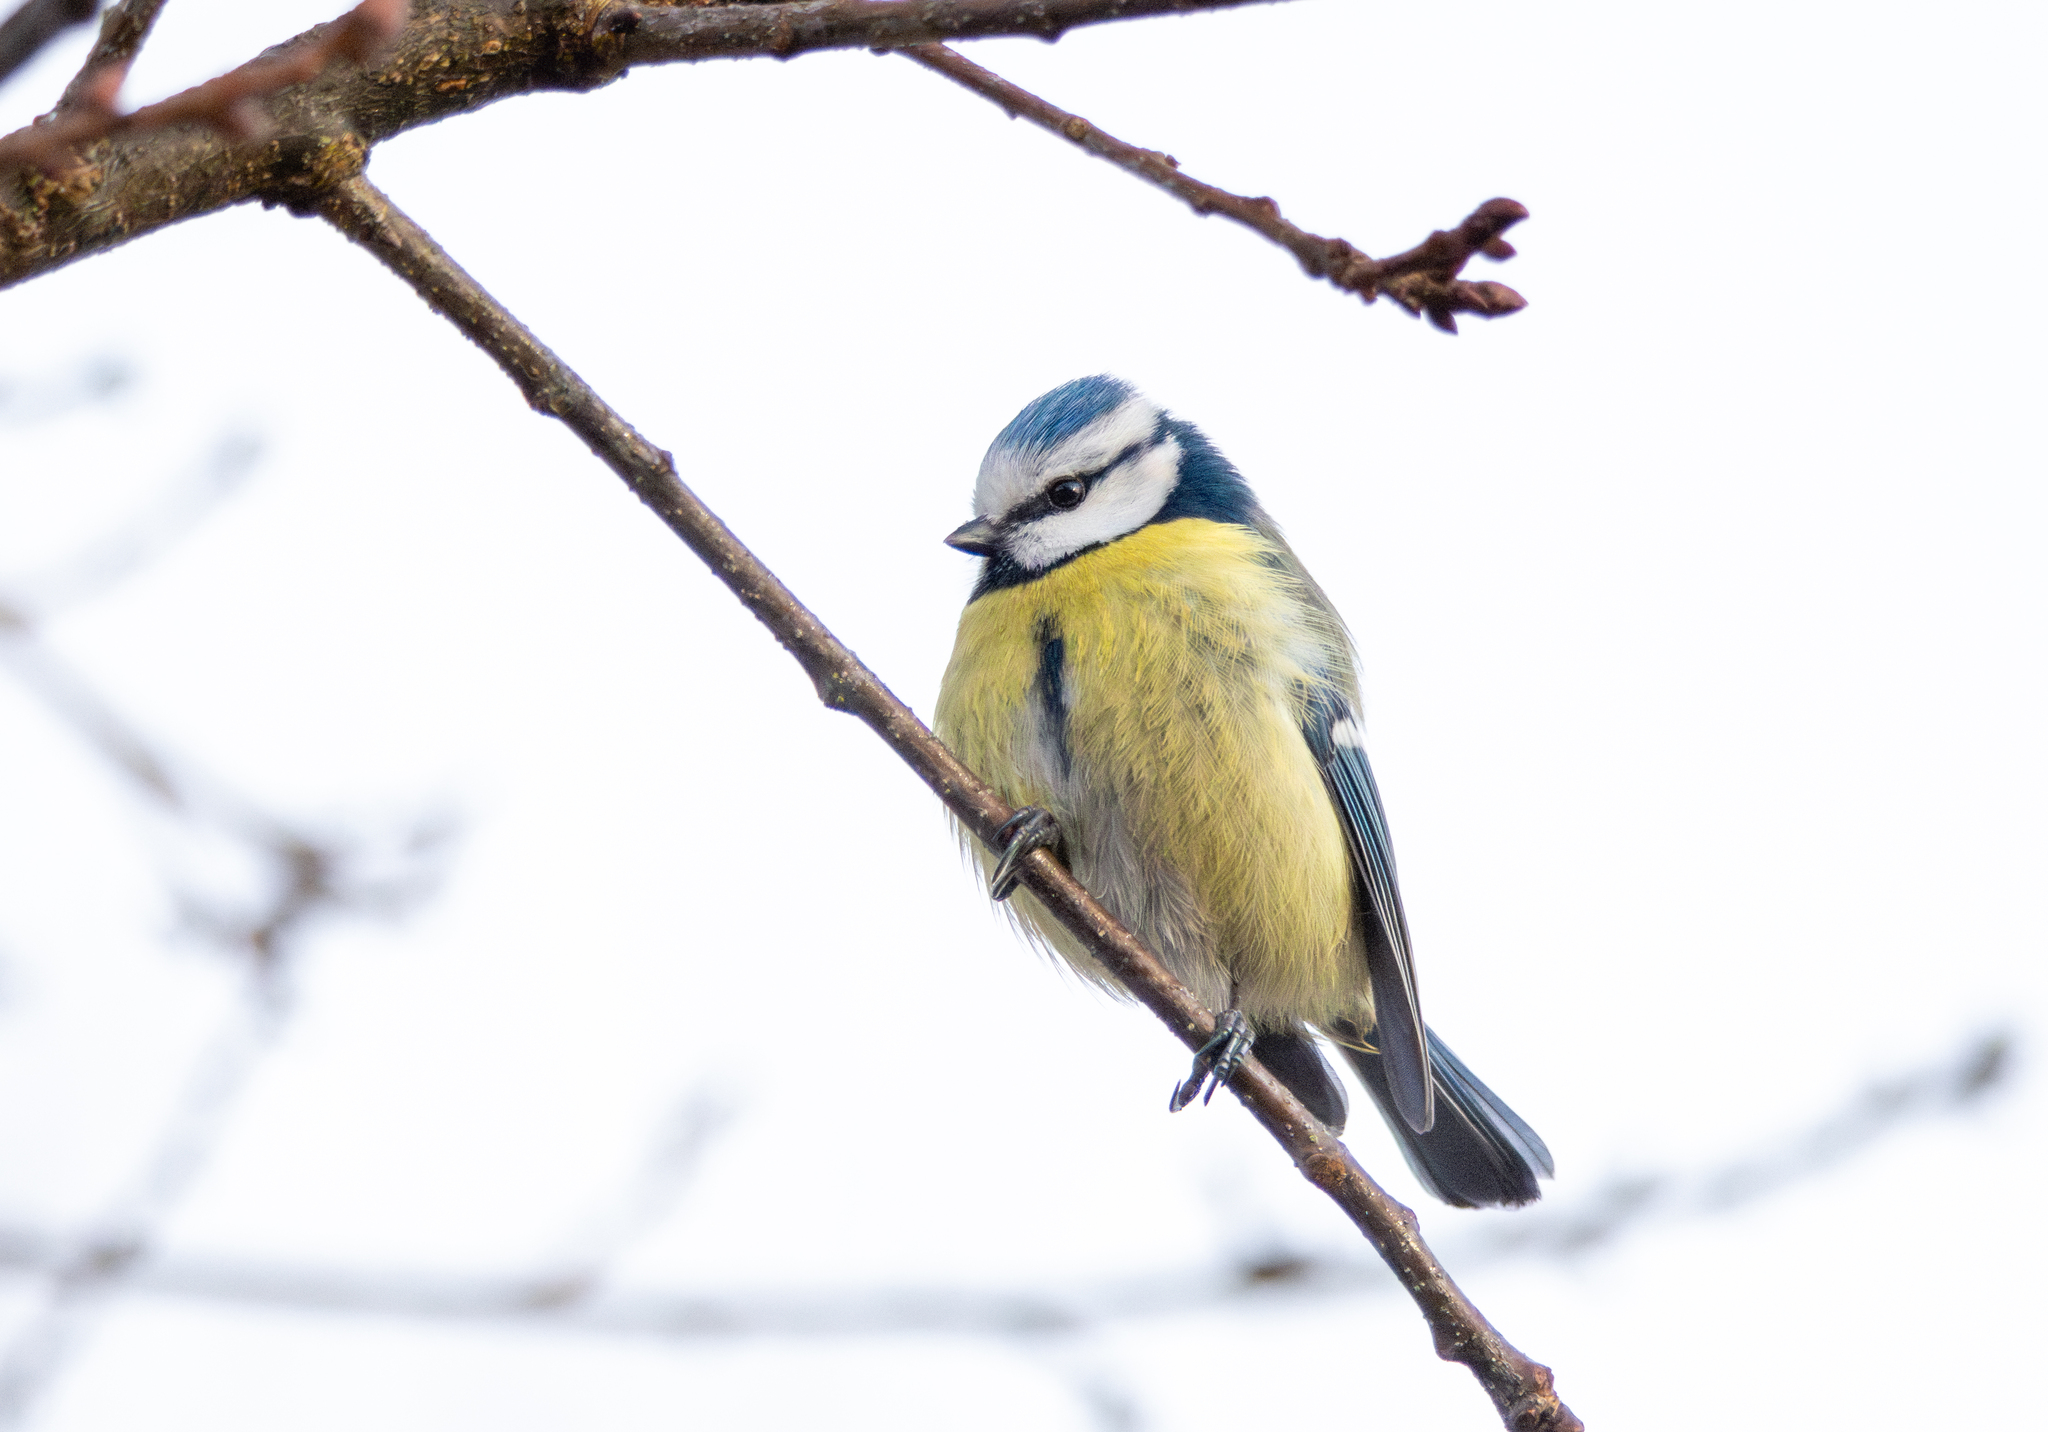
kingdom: Animalia
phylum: Chordata
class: Aves
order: Passeriformes
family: Paridae
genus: Cyanistes
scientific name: Cyanistes caeruleus
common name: Eurasian blue tit
